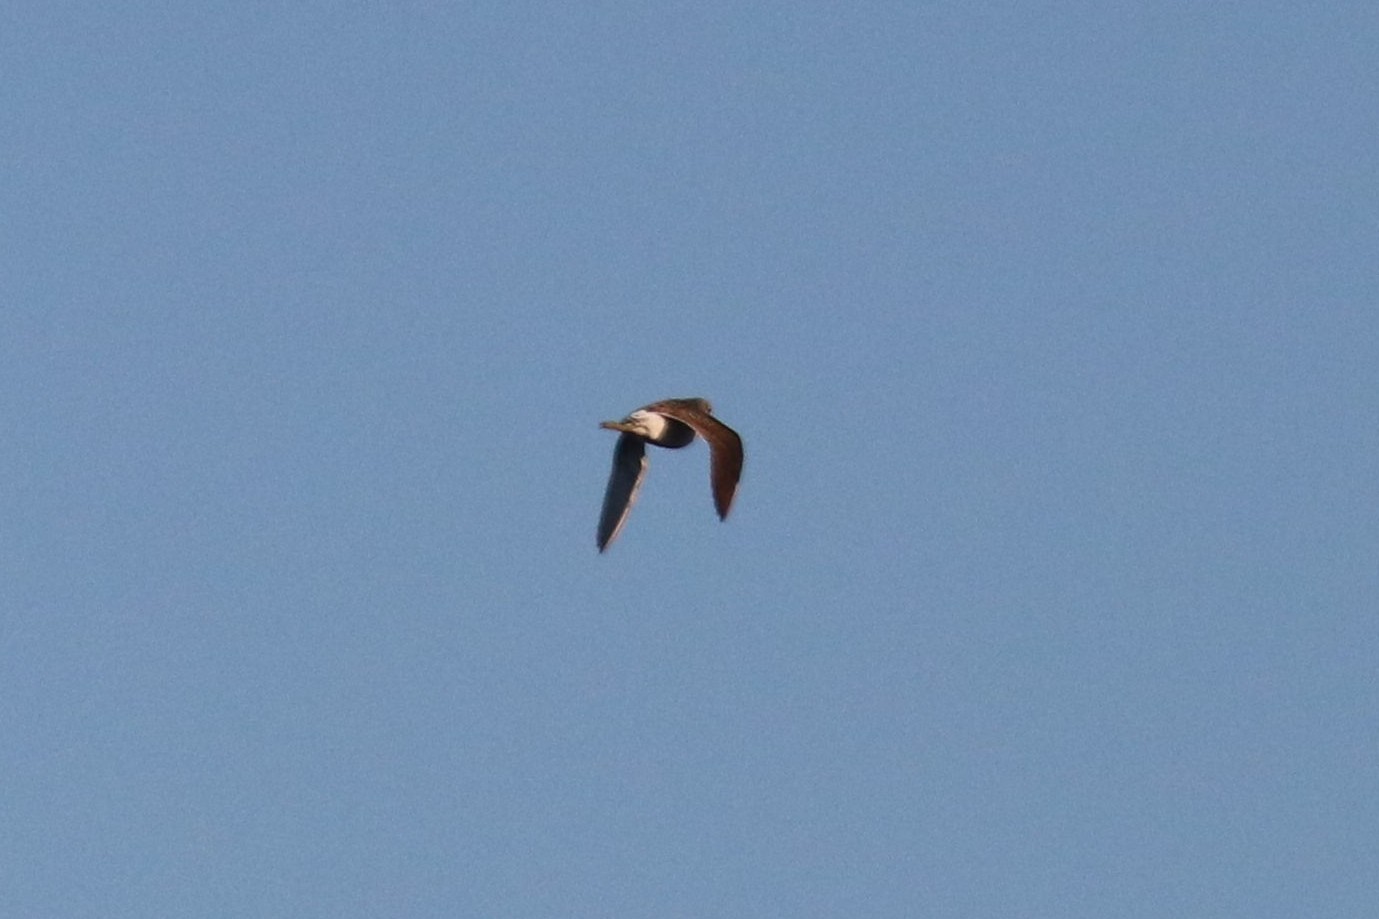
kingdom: Animalia
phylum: Chordata
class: Aves
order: Charadriiformes
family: Scolopacidae
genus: Tringa
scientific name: Tringa glareola
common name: Wood sandpiper
